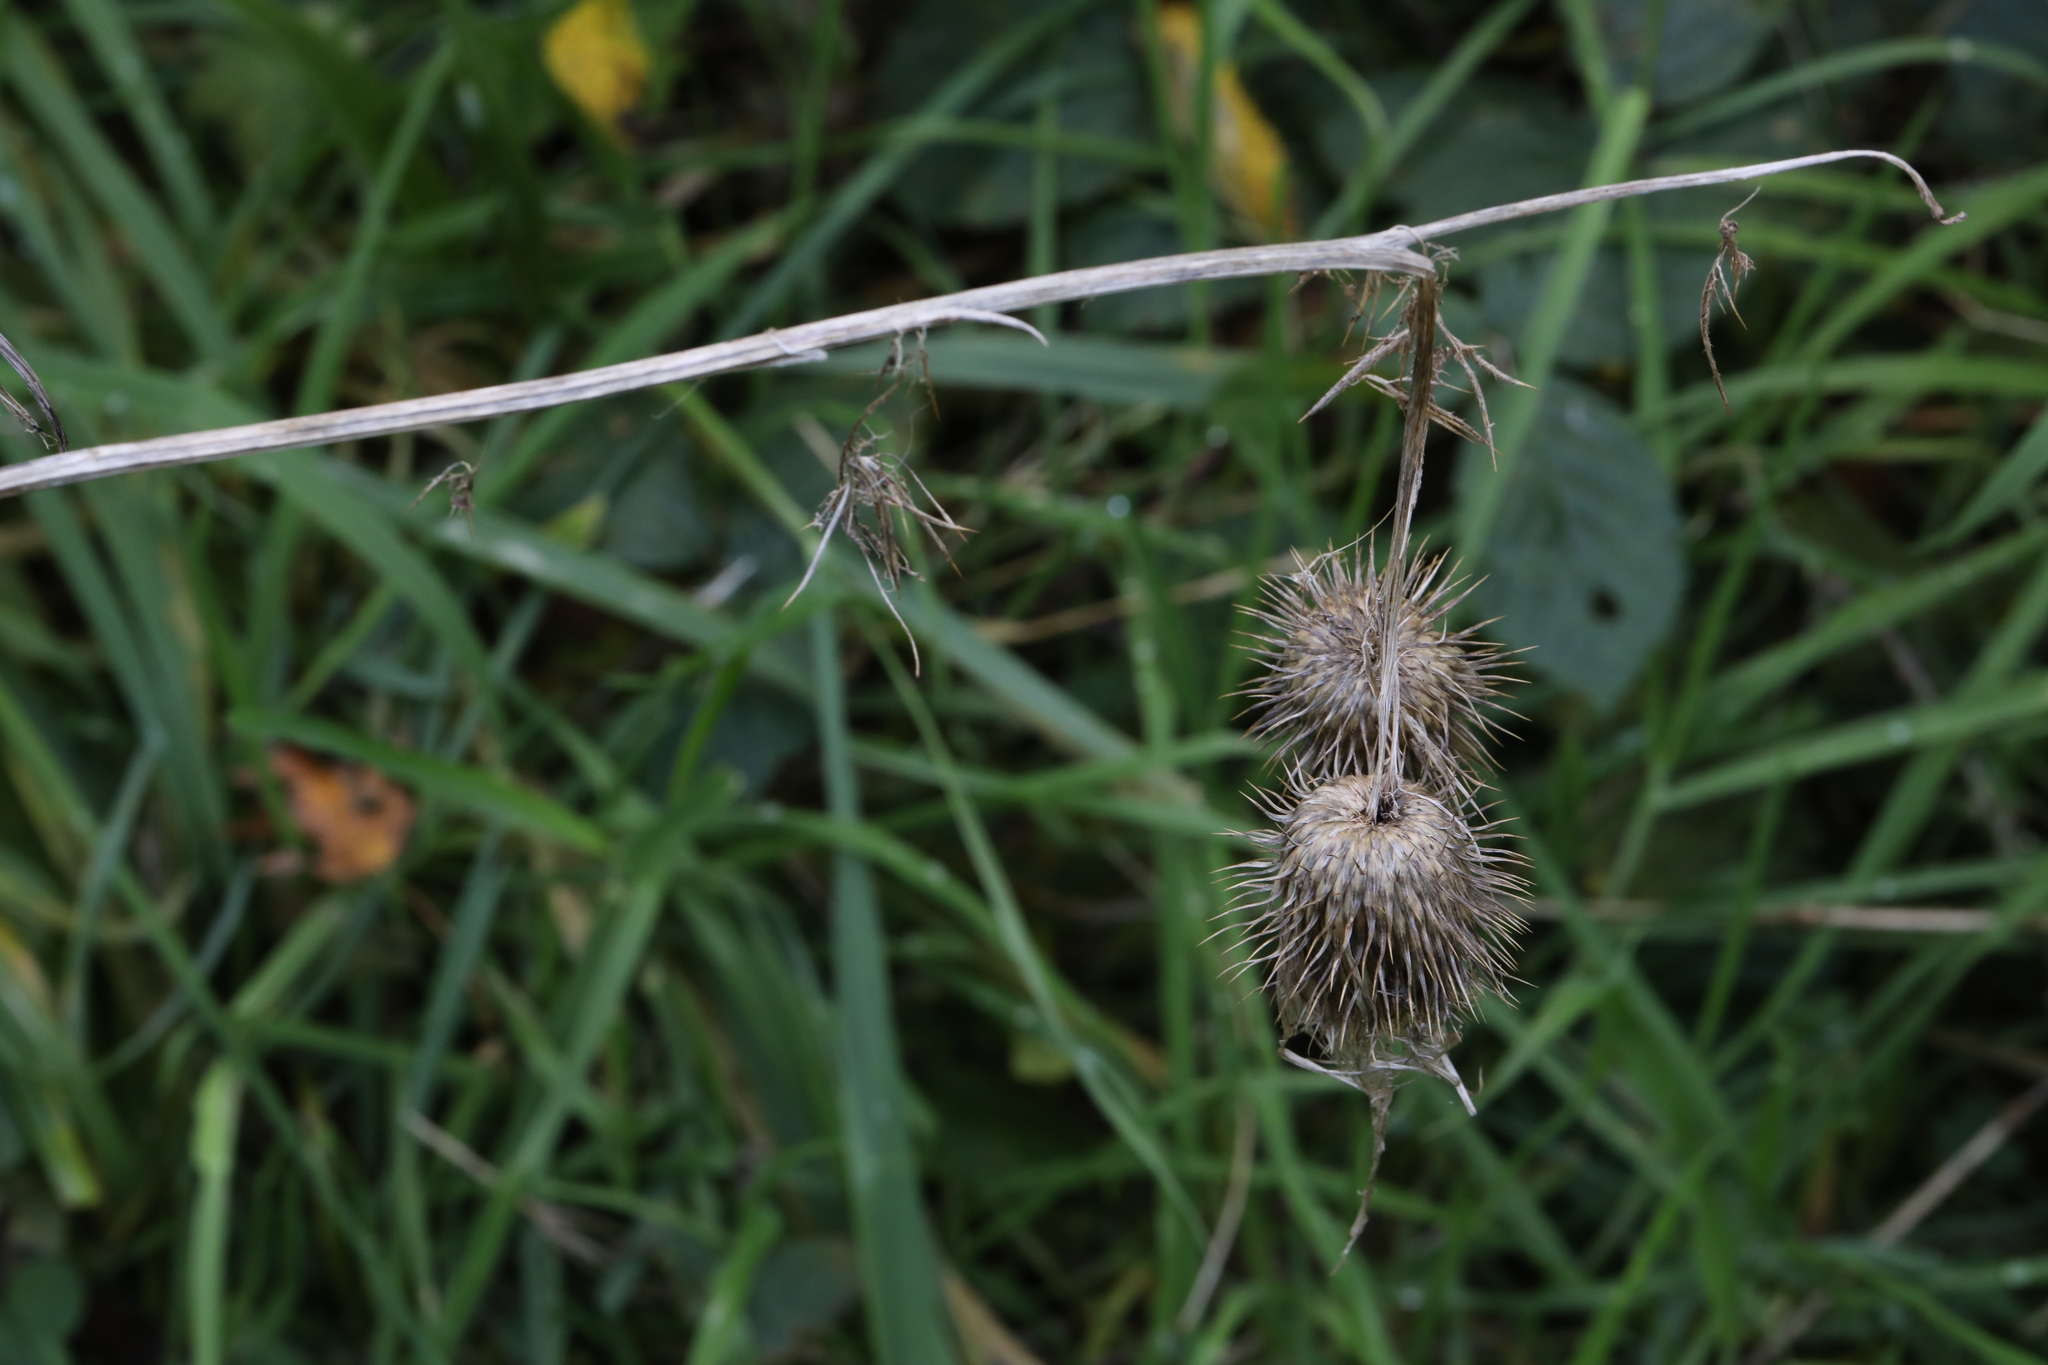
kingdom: Plantae
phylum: Tracheophyta
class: Magnoliopsida
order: Asterales
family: Asteraceae
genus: Cirsium
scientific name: Cirsium vulgare
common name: Bull thistle
